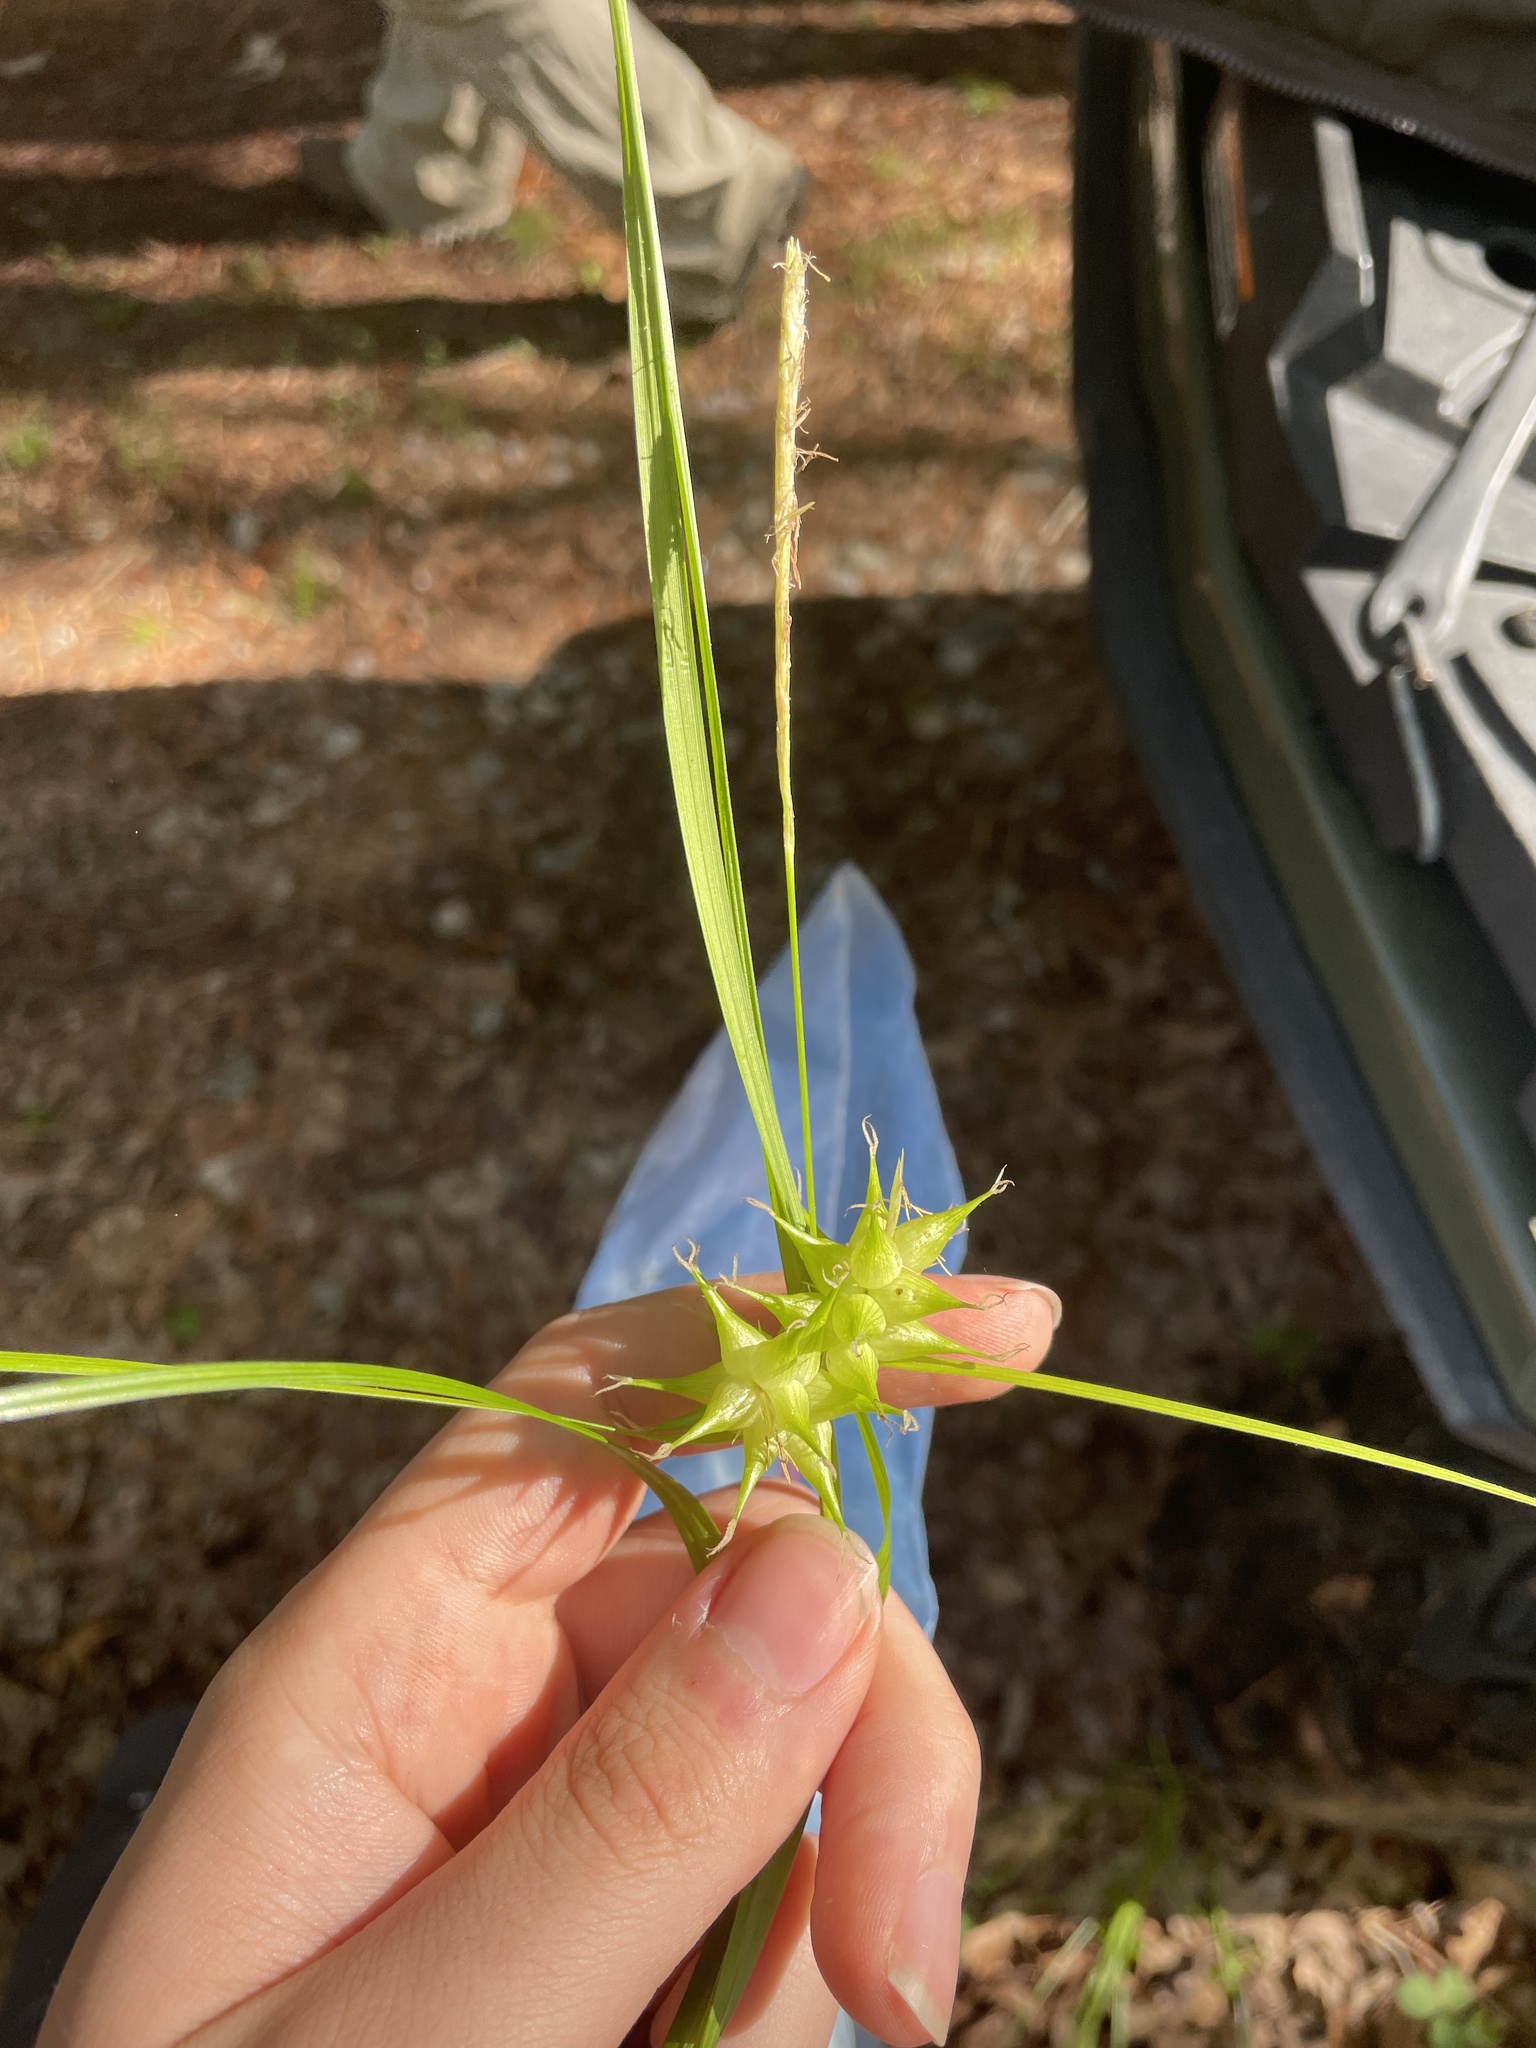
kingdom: Plantae
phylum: Tracheophyta
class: Liliopsida
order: Poales
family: Cyperaceae
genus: Carex
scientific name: Carex intumescens
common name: Greater bladder sedge
